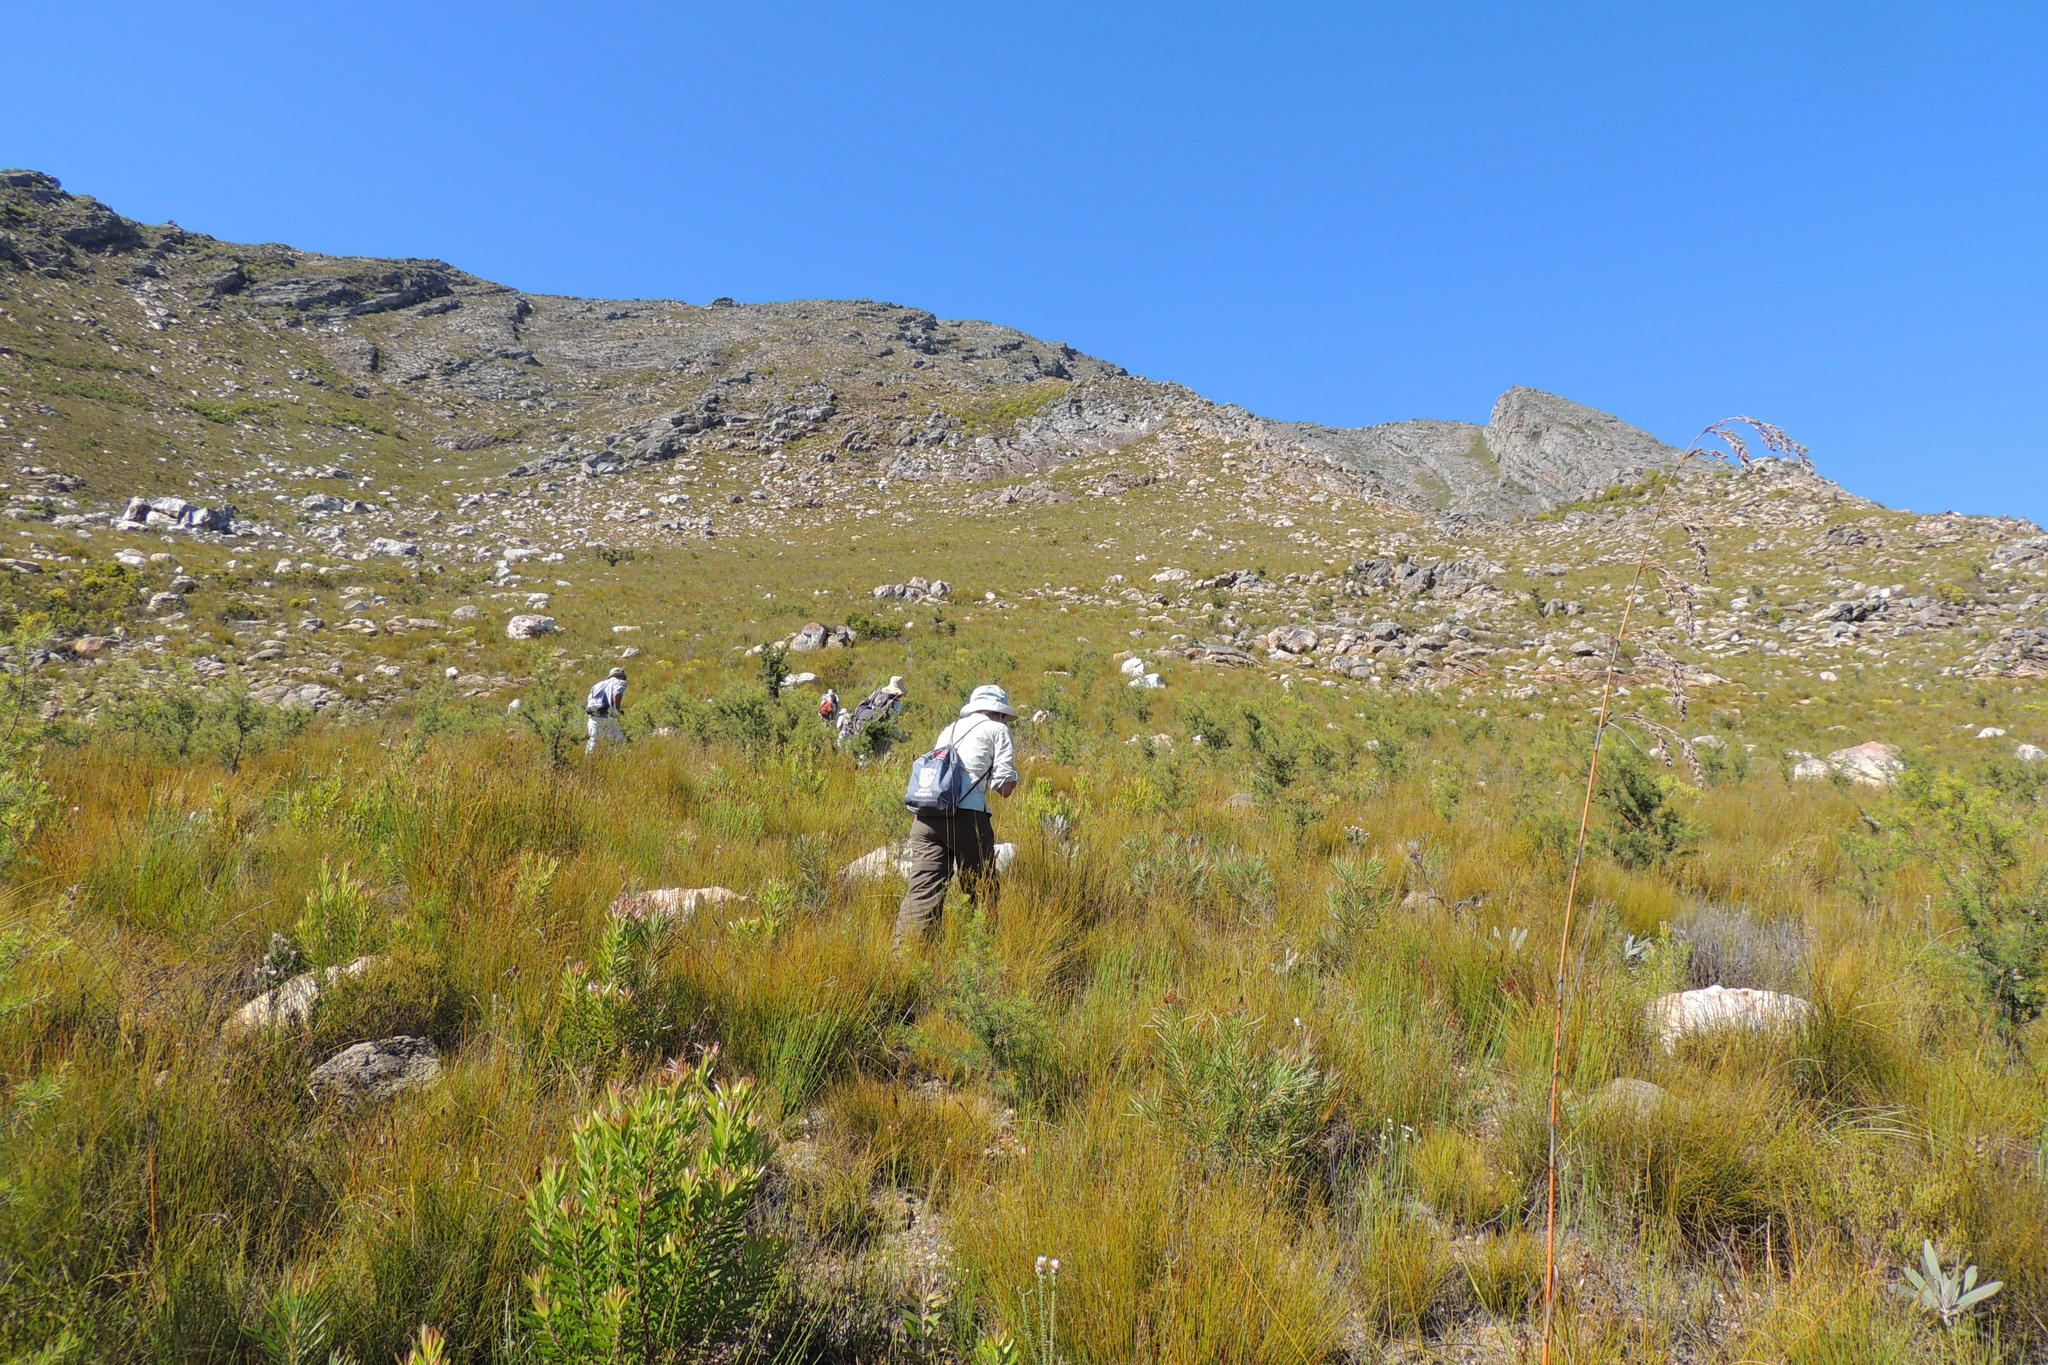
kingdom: Plantae
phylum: Tracheophyta
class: Magnoliopsida
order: Proteales
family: Proteaceae
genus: Hakea
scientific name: Hakea sericea
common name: Needle bush
